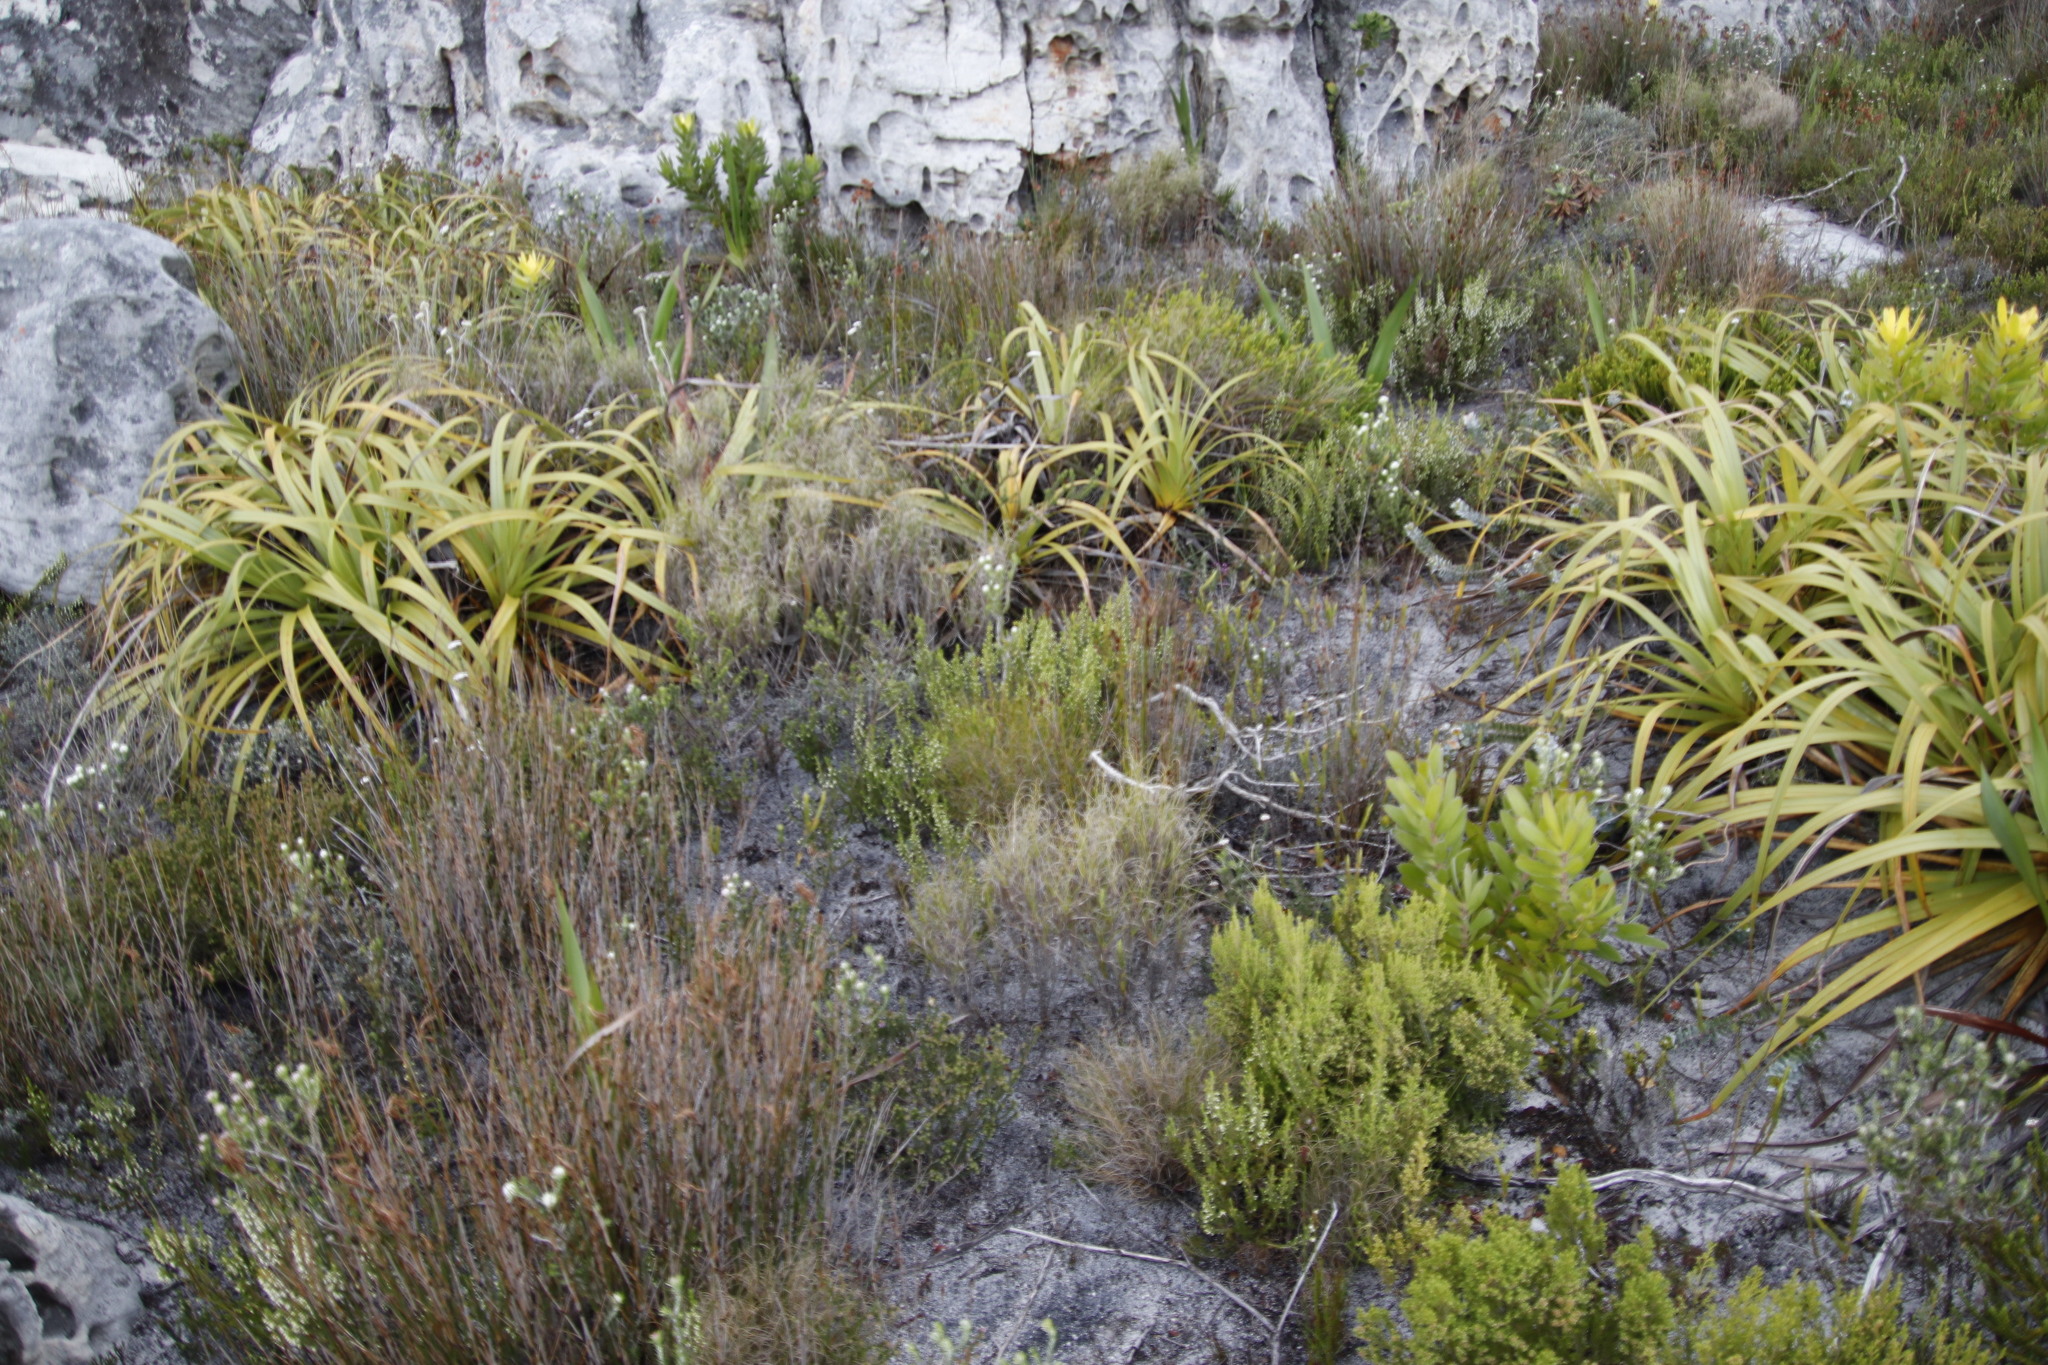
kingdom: Plantae
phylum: Tracheophyta
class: Magnoliopsida
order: Ericales
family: Ericaceae
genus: Erica
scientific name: Erica imbricata
